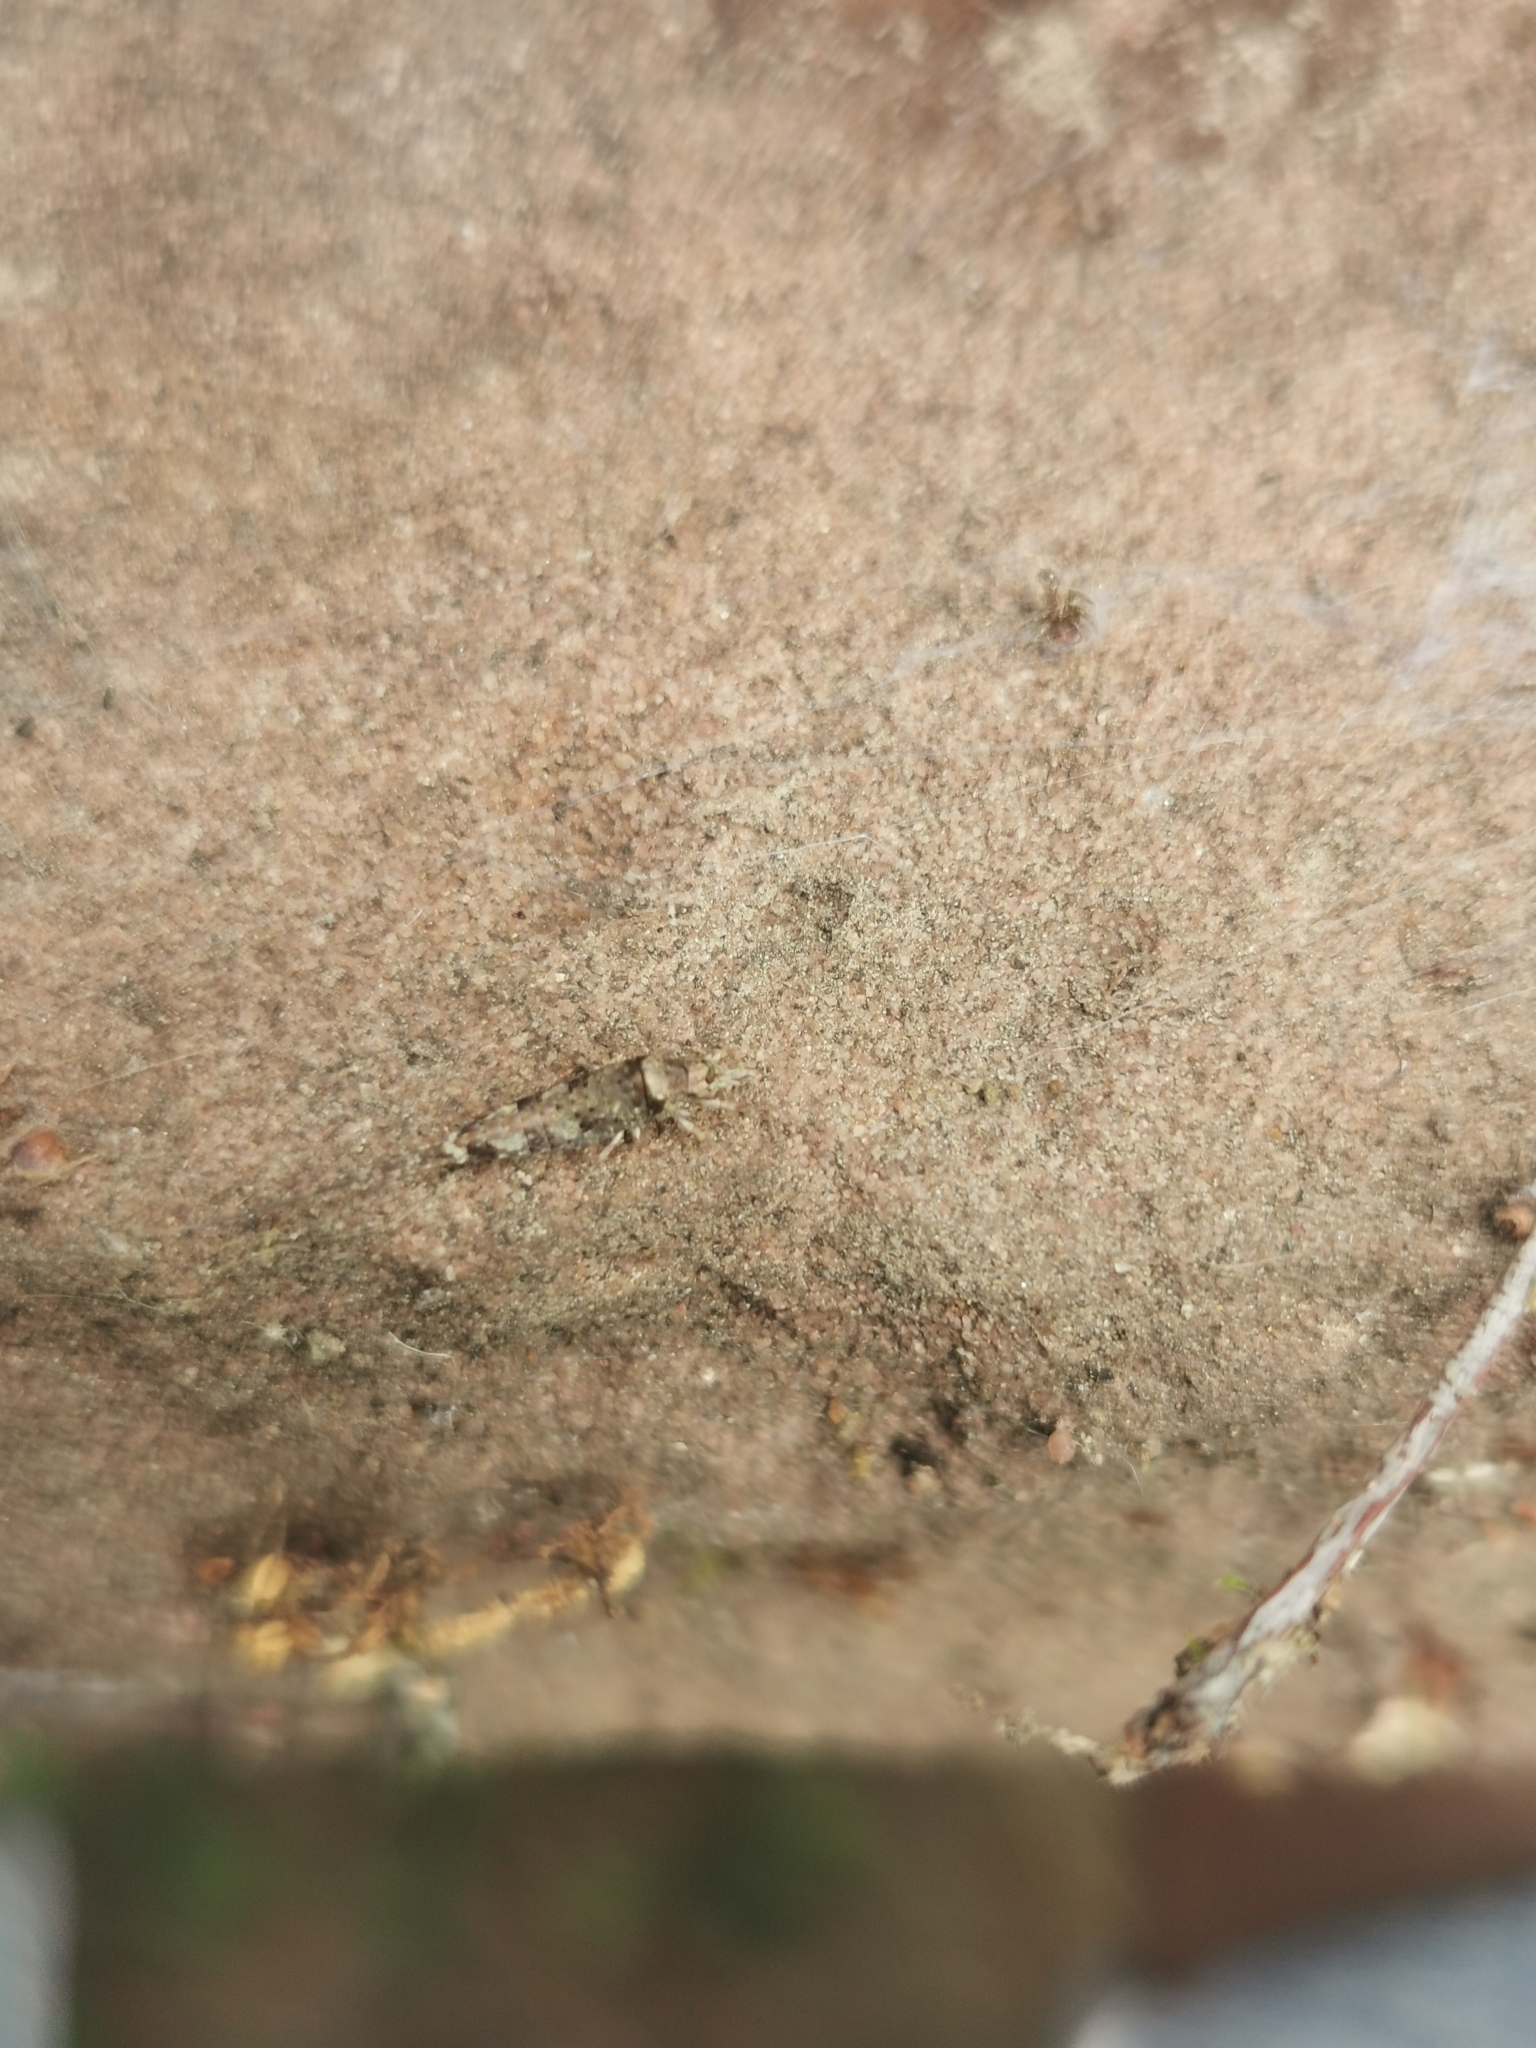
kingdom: Animalia
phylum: Arthropoda
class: Insecta
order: Archaeognatha
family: Machilidae
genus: Trigoniophthalmus
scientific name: Trigoniophthalmus alternatus
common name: Jumping bristletail
